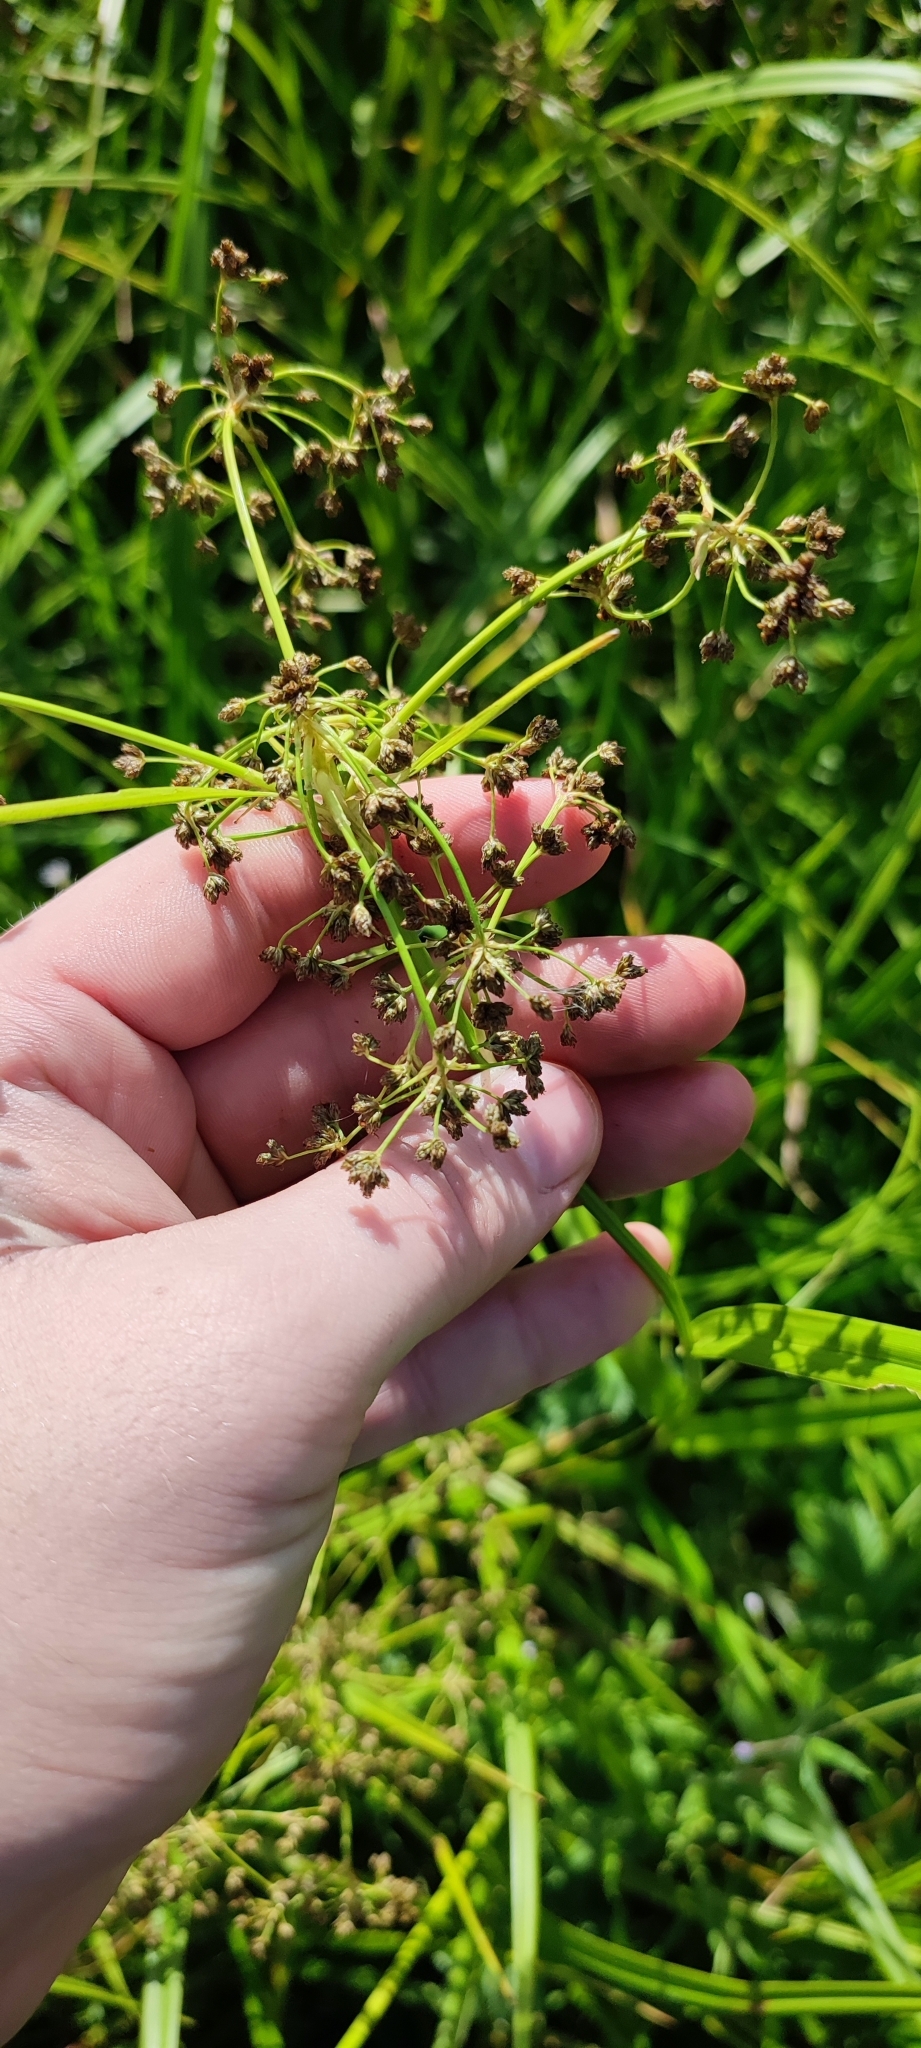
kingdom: Plantae
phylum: Tracheophyta
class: Liliopsida
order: Poales
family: Cyperaceae
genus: Scirpus
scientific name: Scirpus sylvaticus
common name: Wood club-rush
